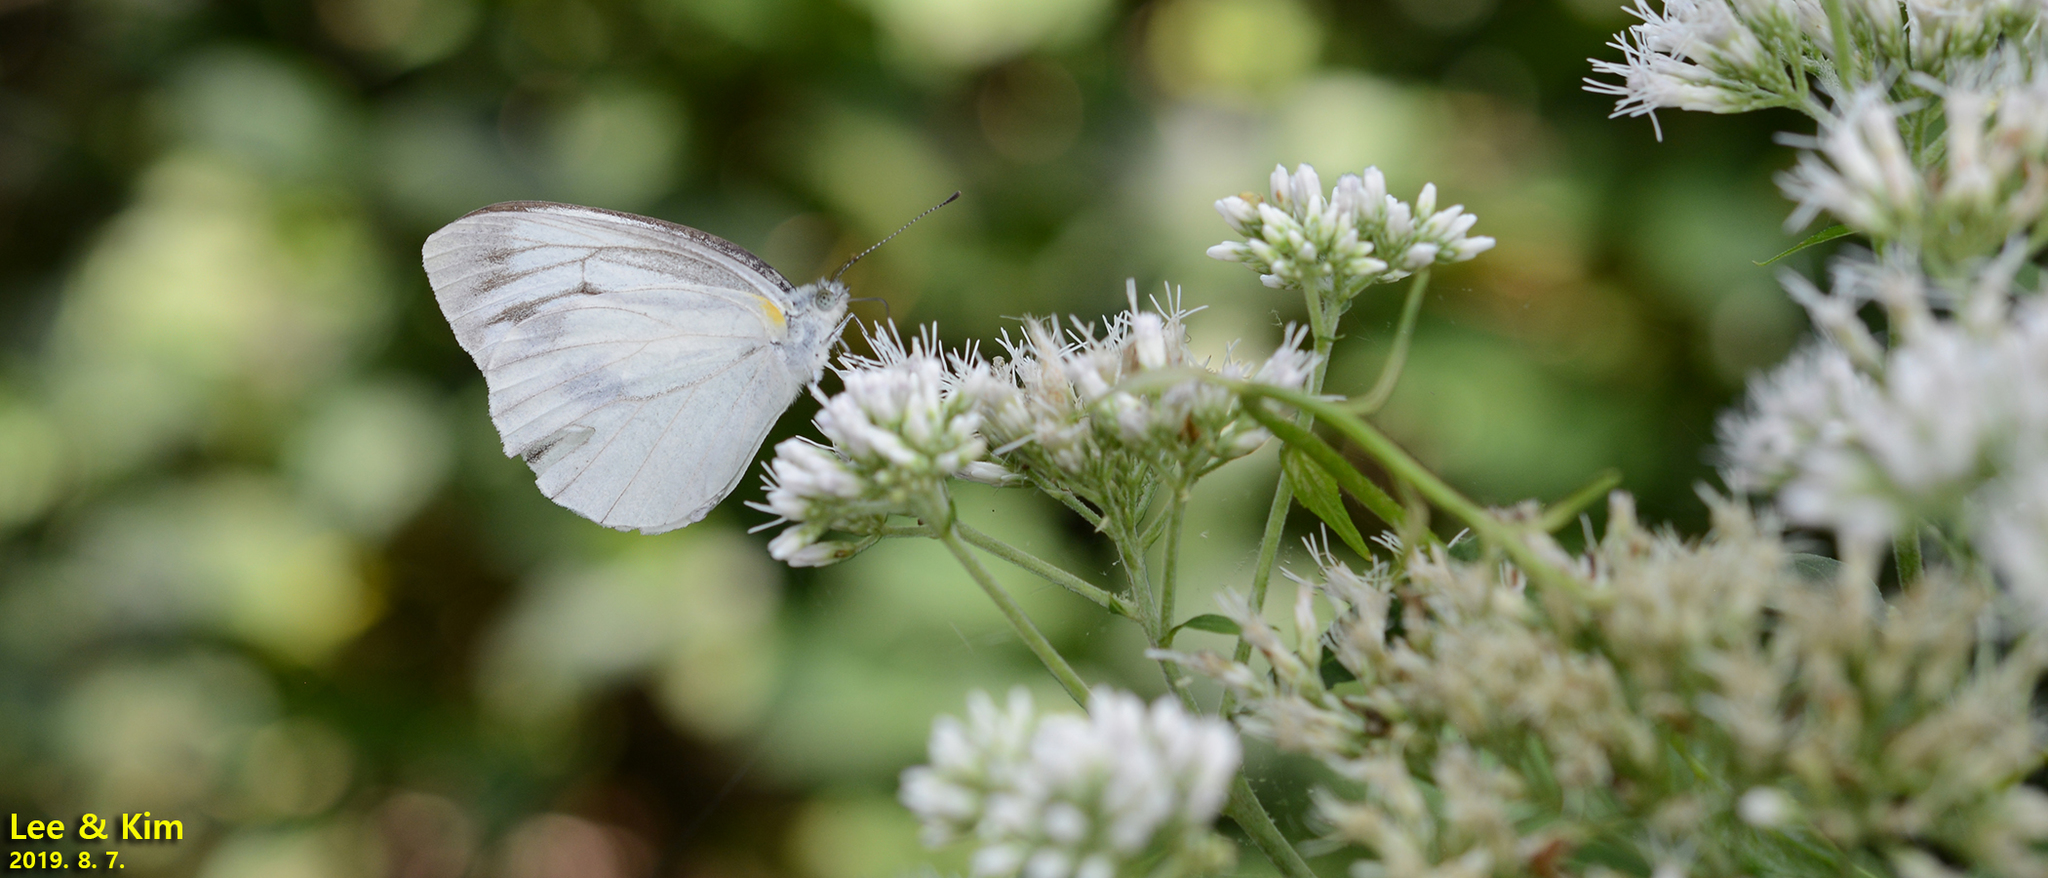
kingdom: Animalia
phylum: Arthropoda
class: Insecta
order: Lepidoptera
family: Pieridae
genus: Pieris
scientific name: Pieris melete
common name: Asian green-veined white
